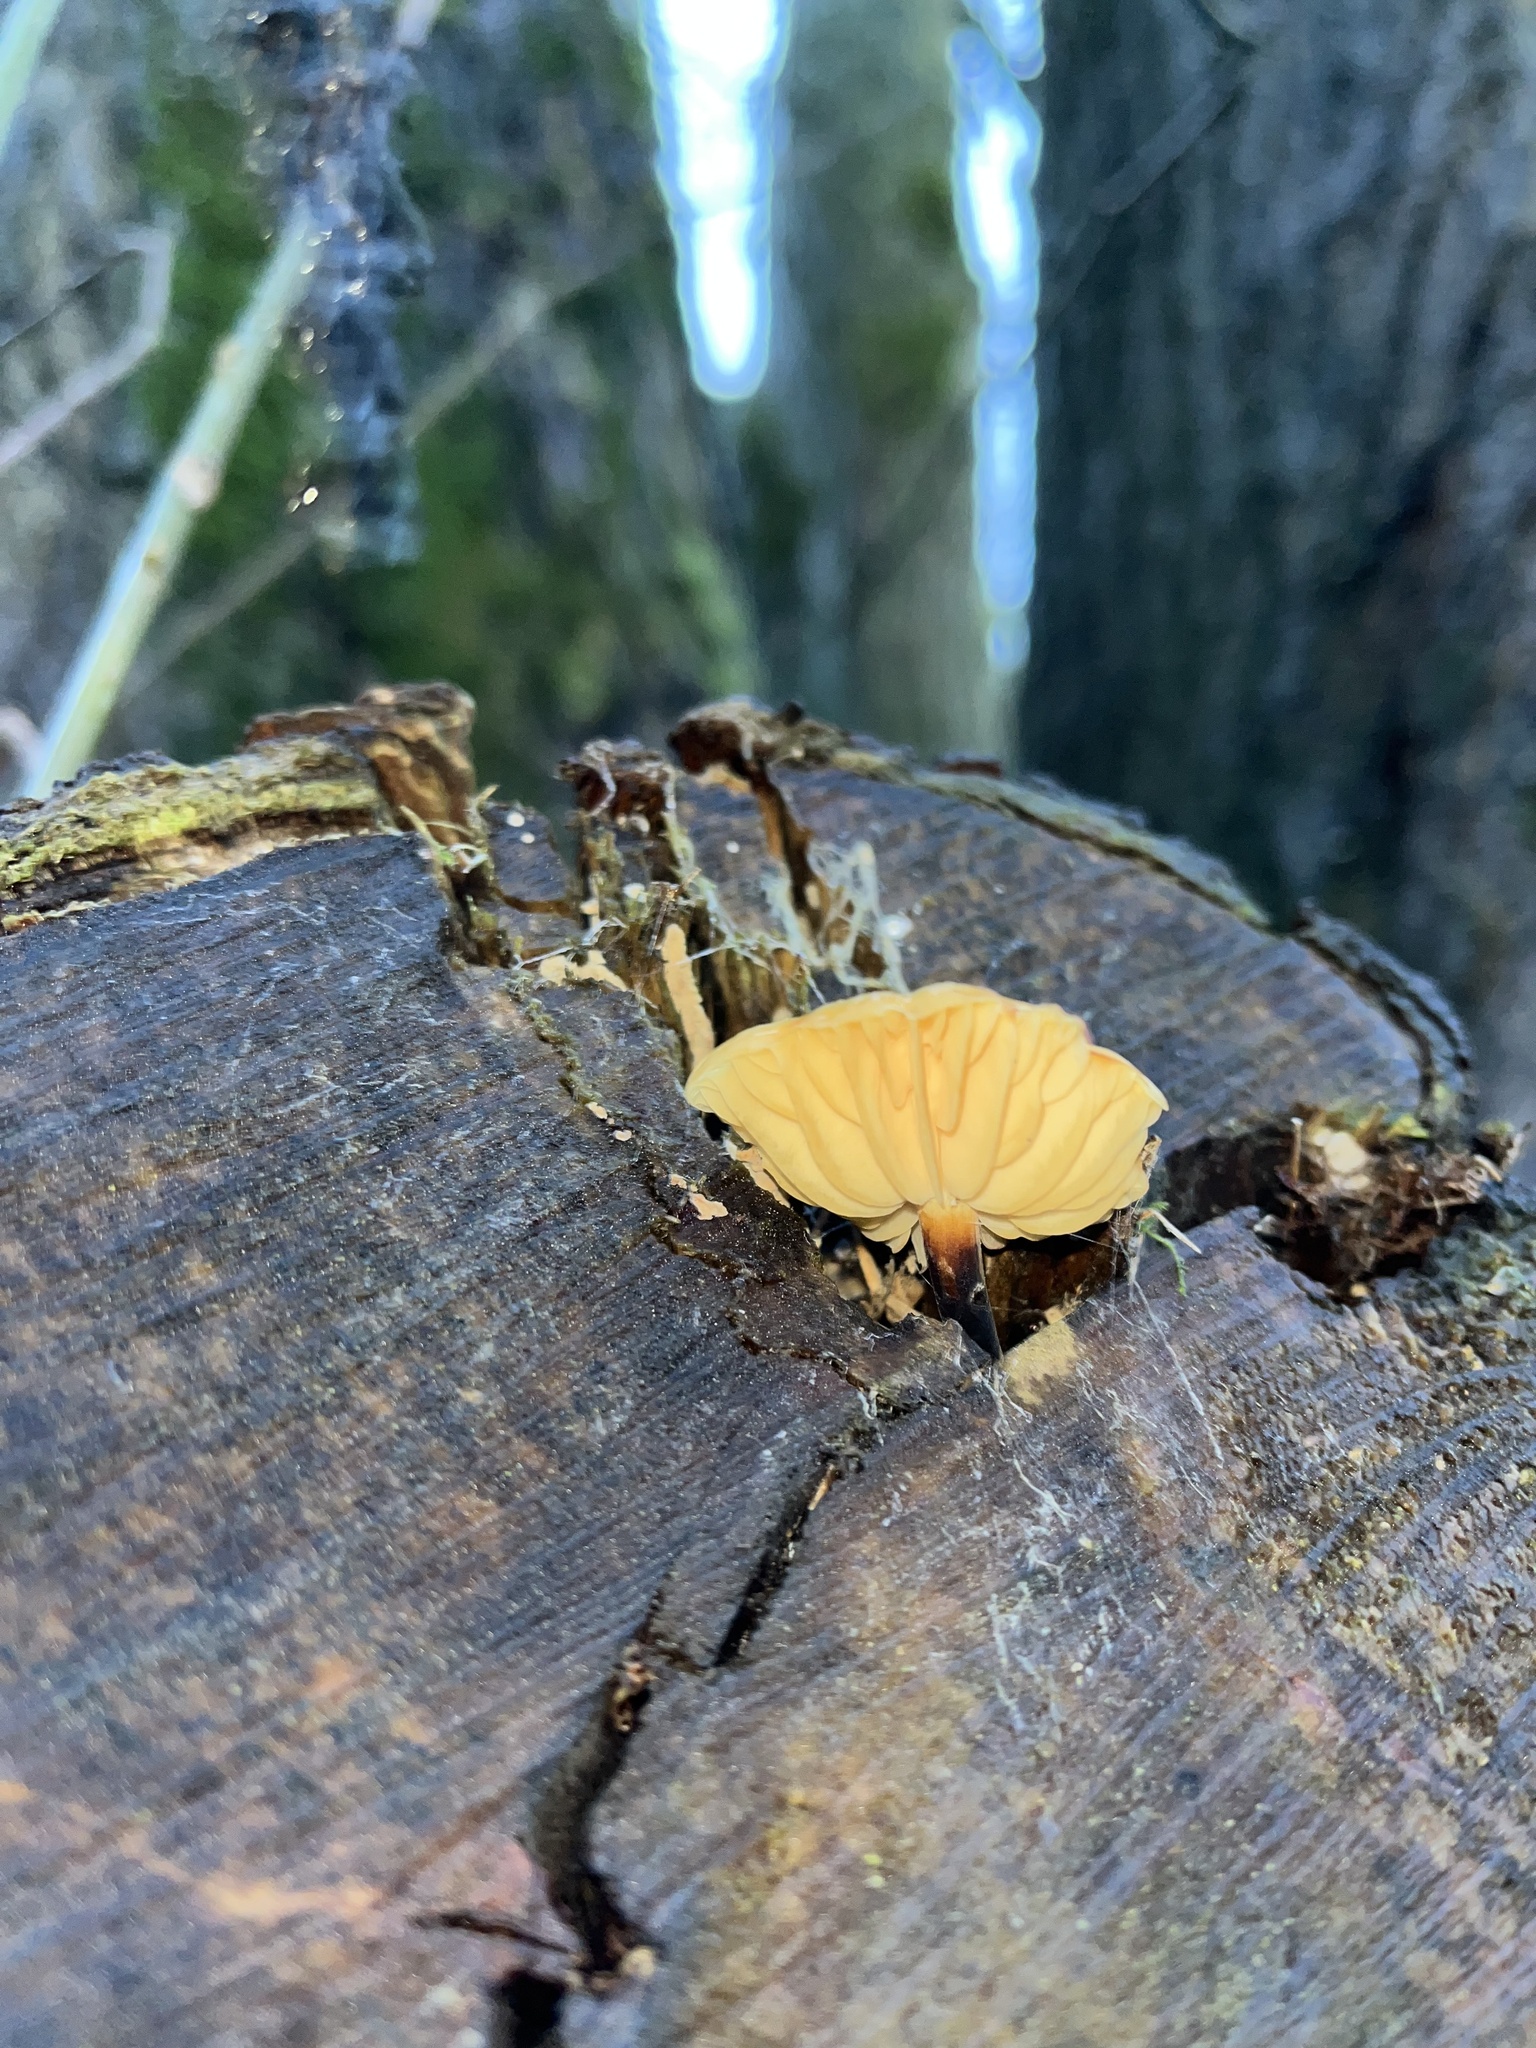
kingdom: Fungi
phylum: Basidiomycota
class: Agaricomycetes
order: Agaricales
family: Physalacriaceae
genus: Flammulina
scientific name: Flammulina
